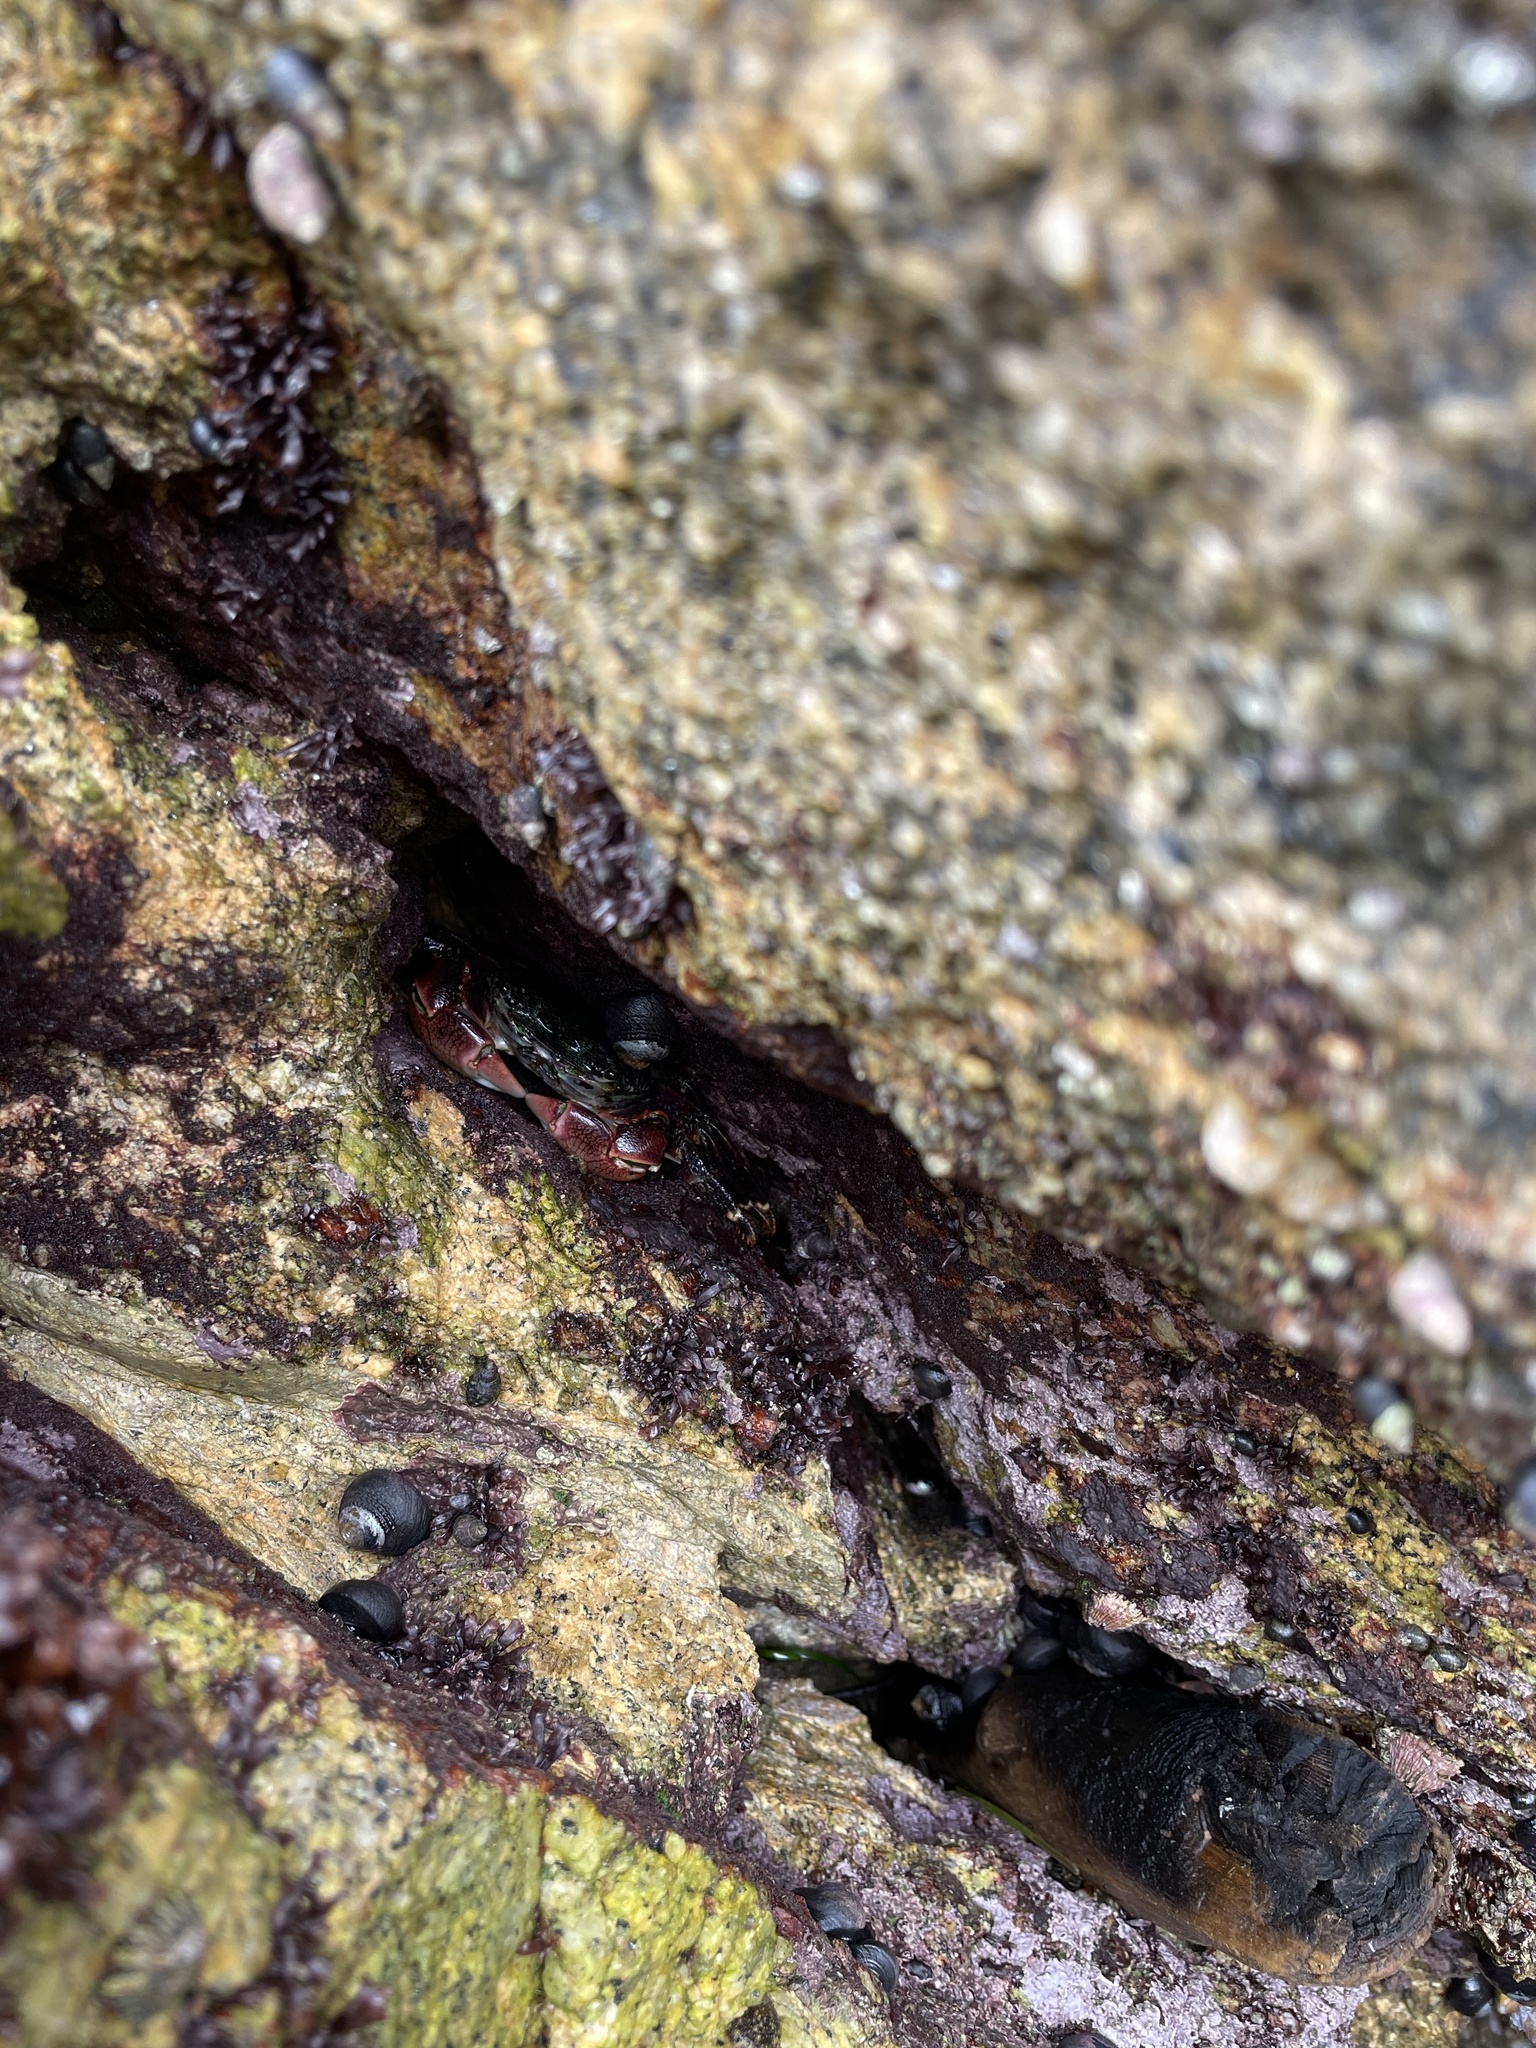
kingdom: Animalia
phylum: Arthropoda
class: Malacostraca
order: Decapoda
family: Grapsidae
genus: Pachygrapsus
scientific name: Pachygrapsus crassipes
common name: Striped shore crab
